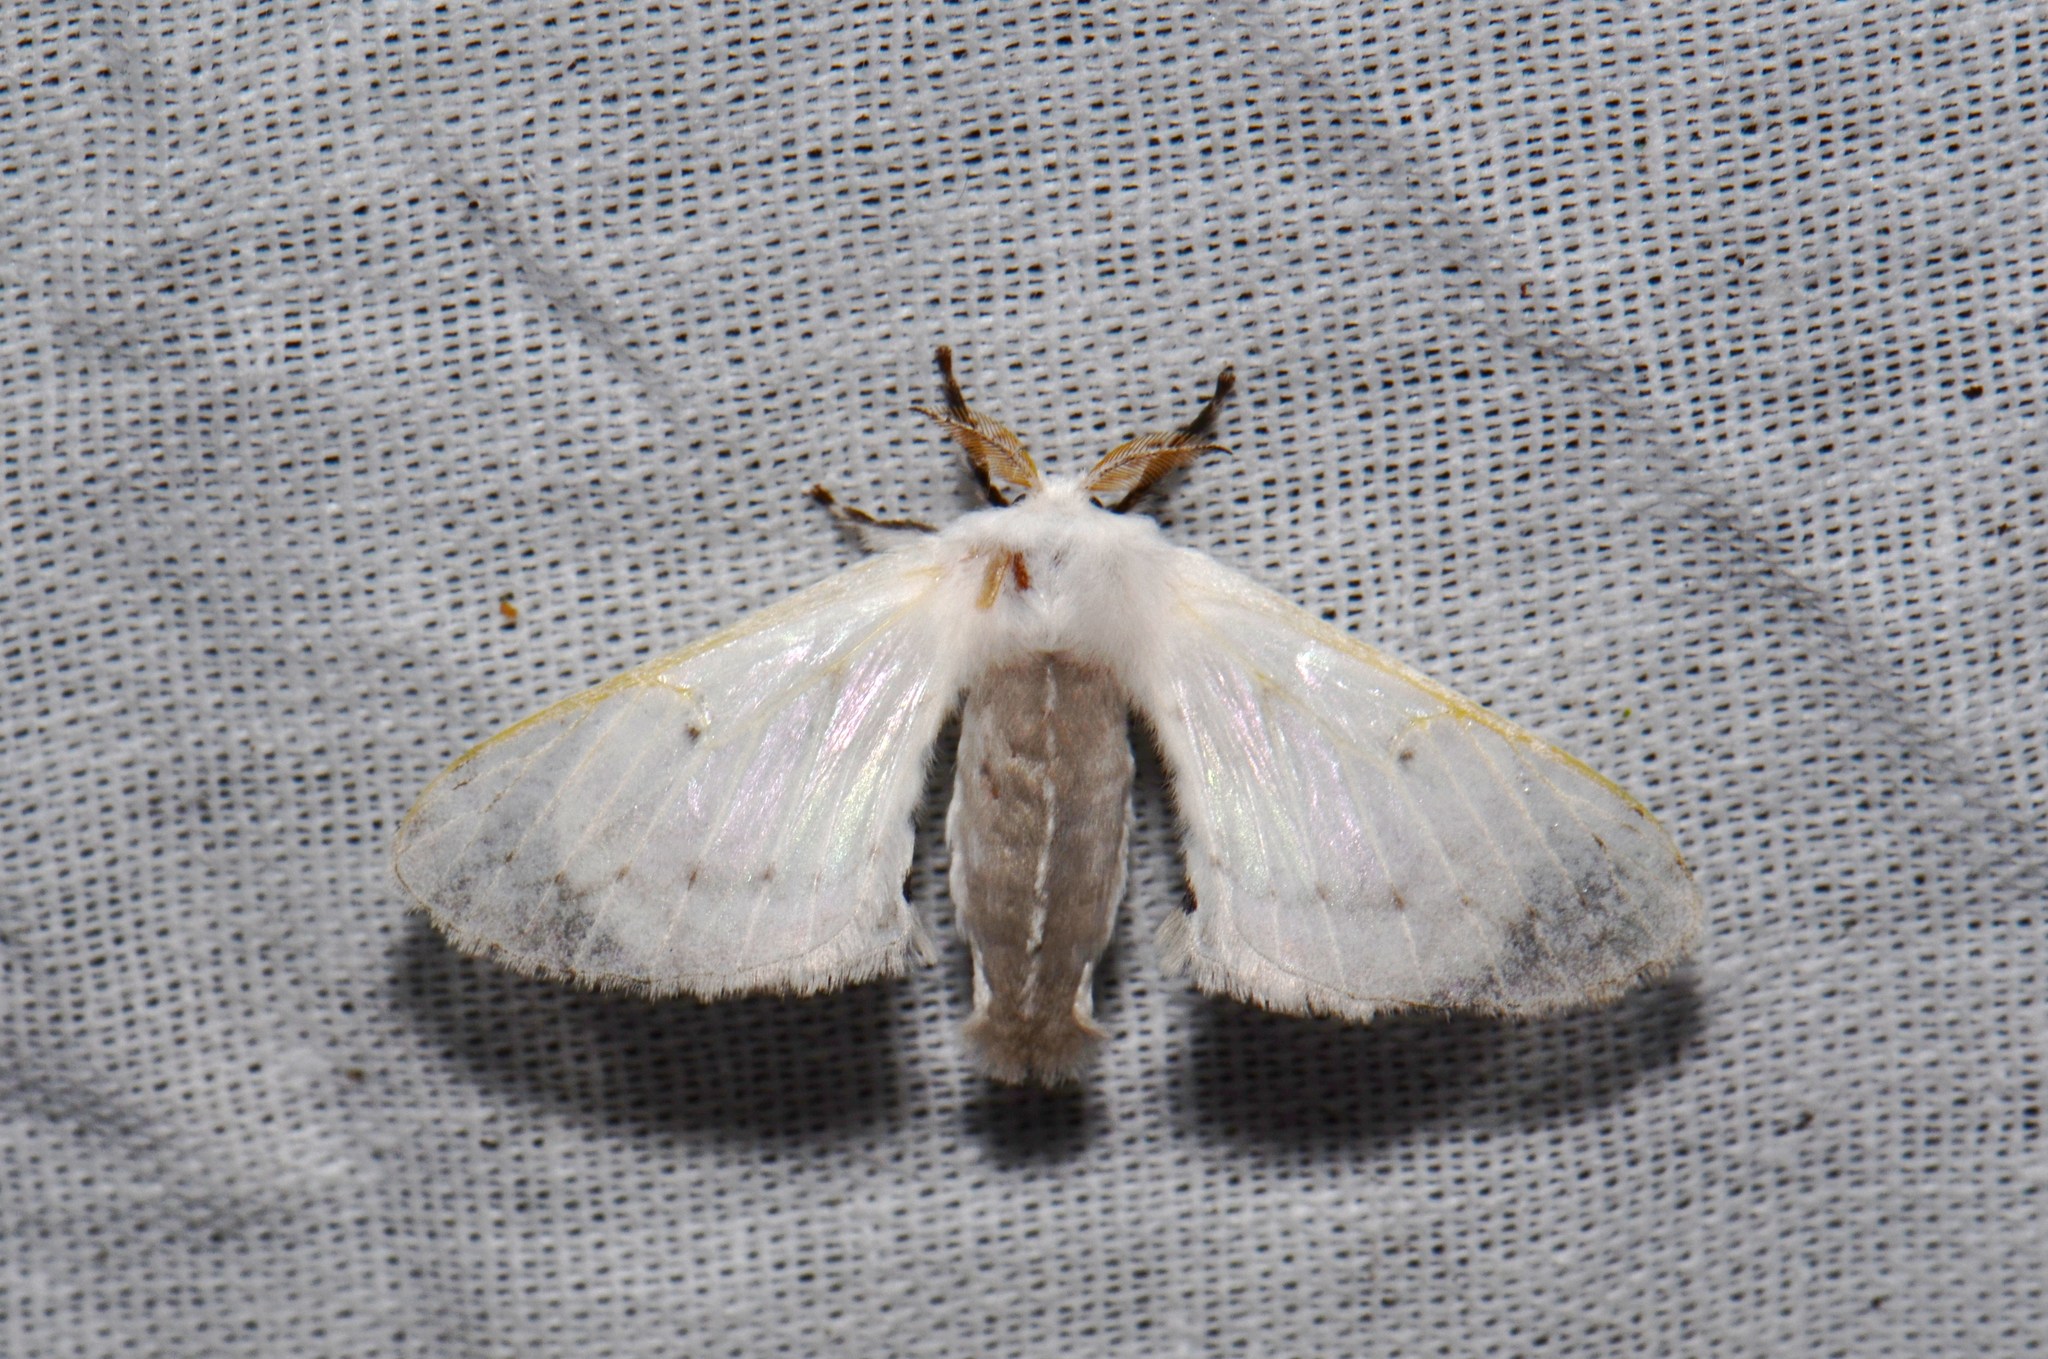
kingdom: Animalia
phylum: Arthropoda
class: Insecta
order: Lepidoptera
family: Bombycidae
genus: Penicillifera
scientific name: Penicillifera apicalis
